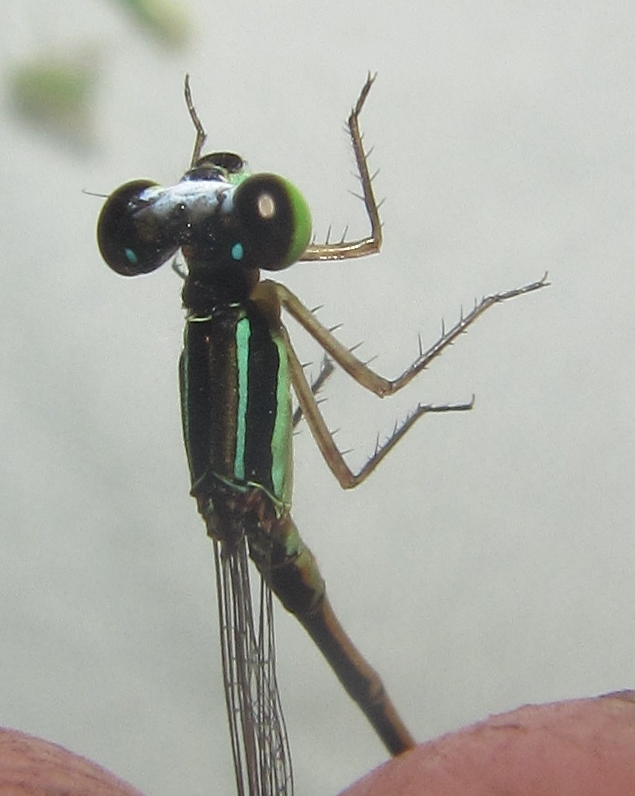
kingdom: Animalia
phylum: Arthropoda
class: Insecta
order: Odonata
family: Coenagrionidae
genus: Agriocnemis
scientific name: Agriocnemis ruberrima
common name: Orange wisp
